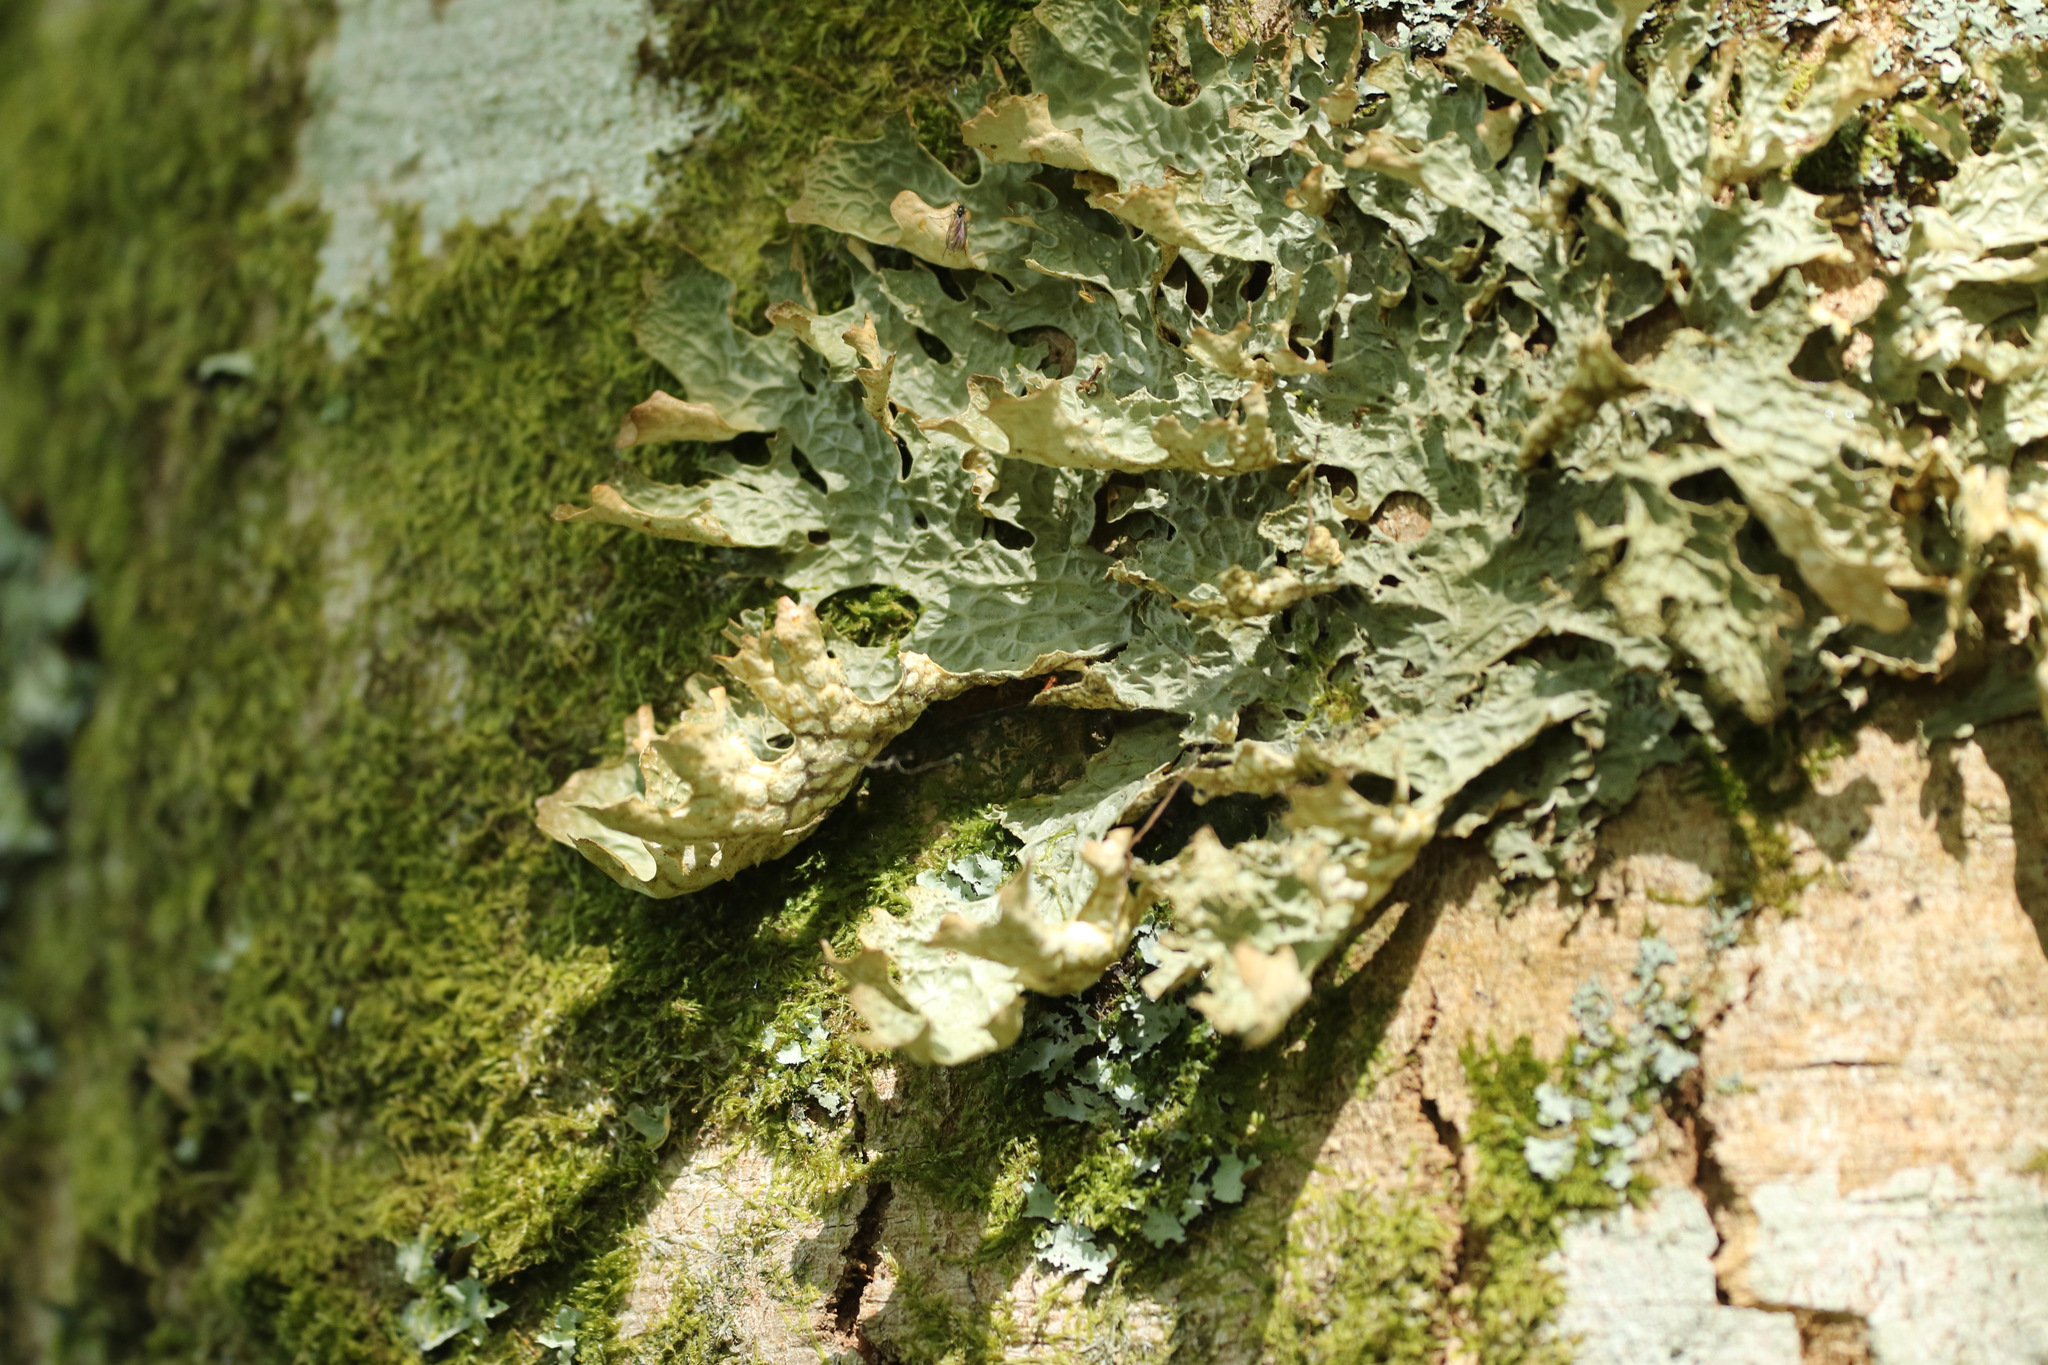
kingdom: Fungi
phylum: Ascomycota
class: Lecanoromycetes
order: Peltigerales
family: Lobariaceae
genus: Lobaria
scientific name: Lobaria pulmonaria
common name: Lungwort
